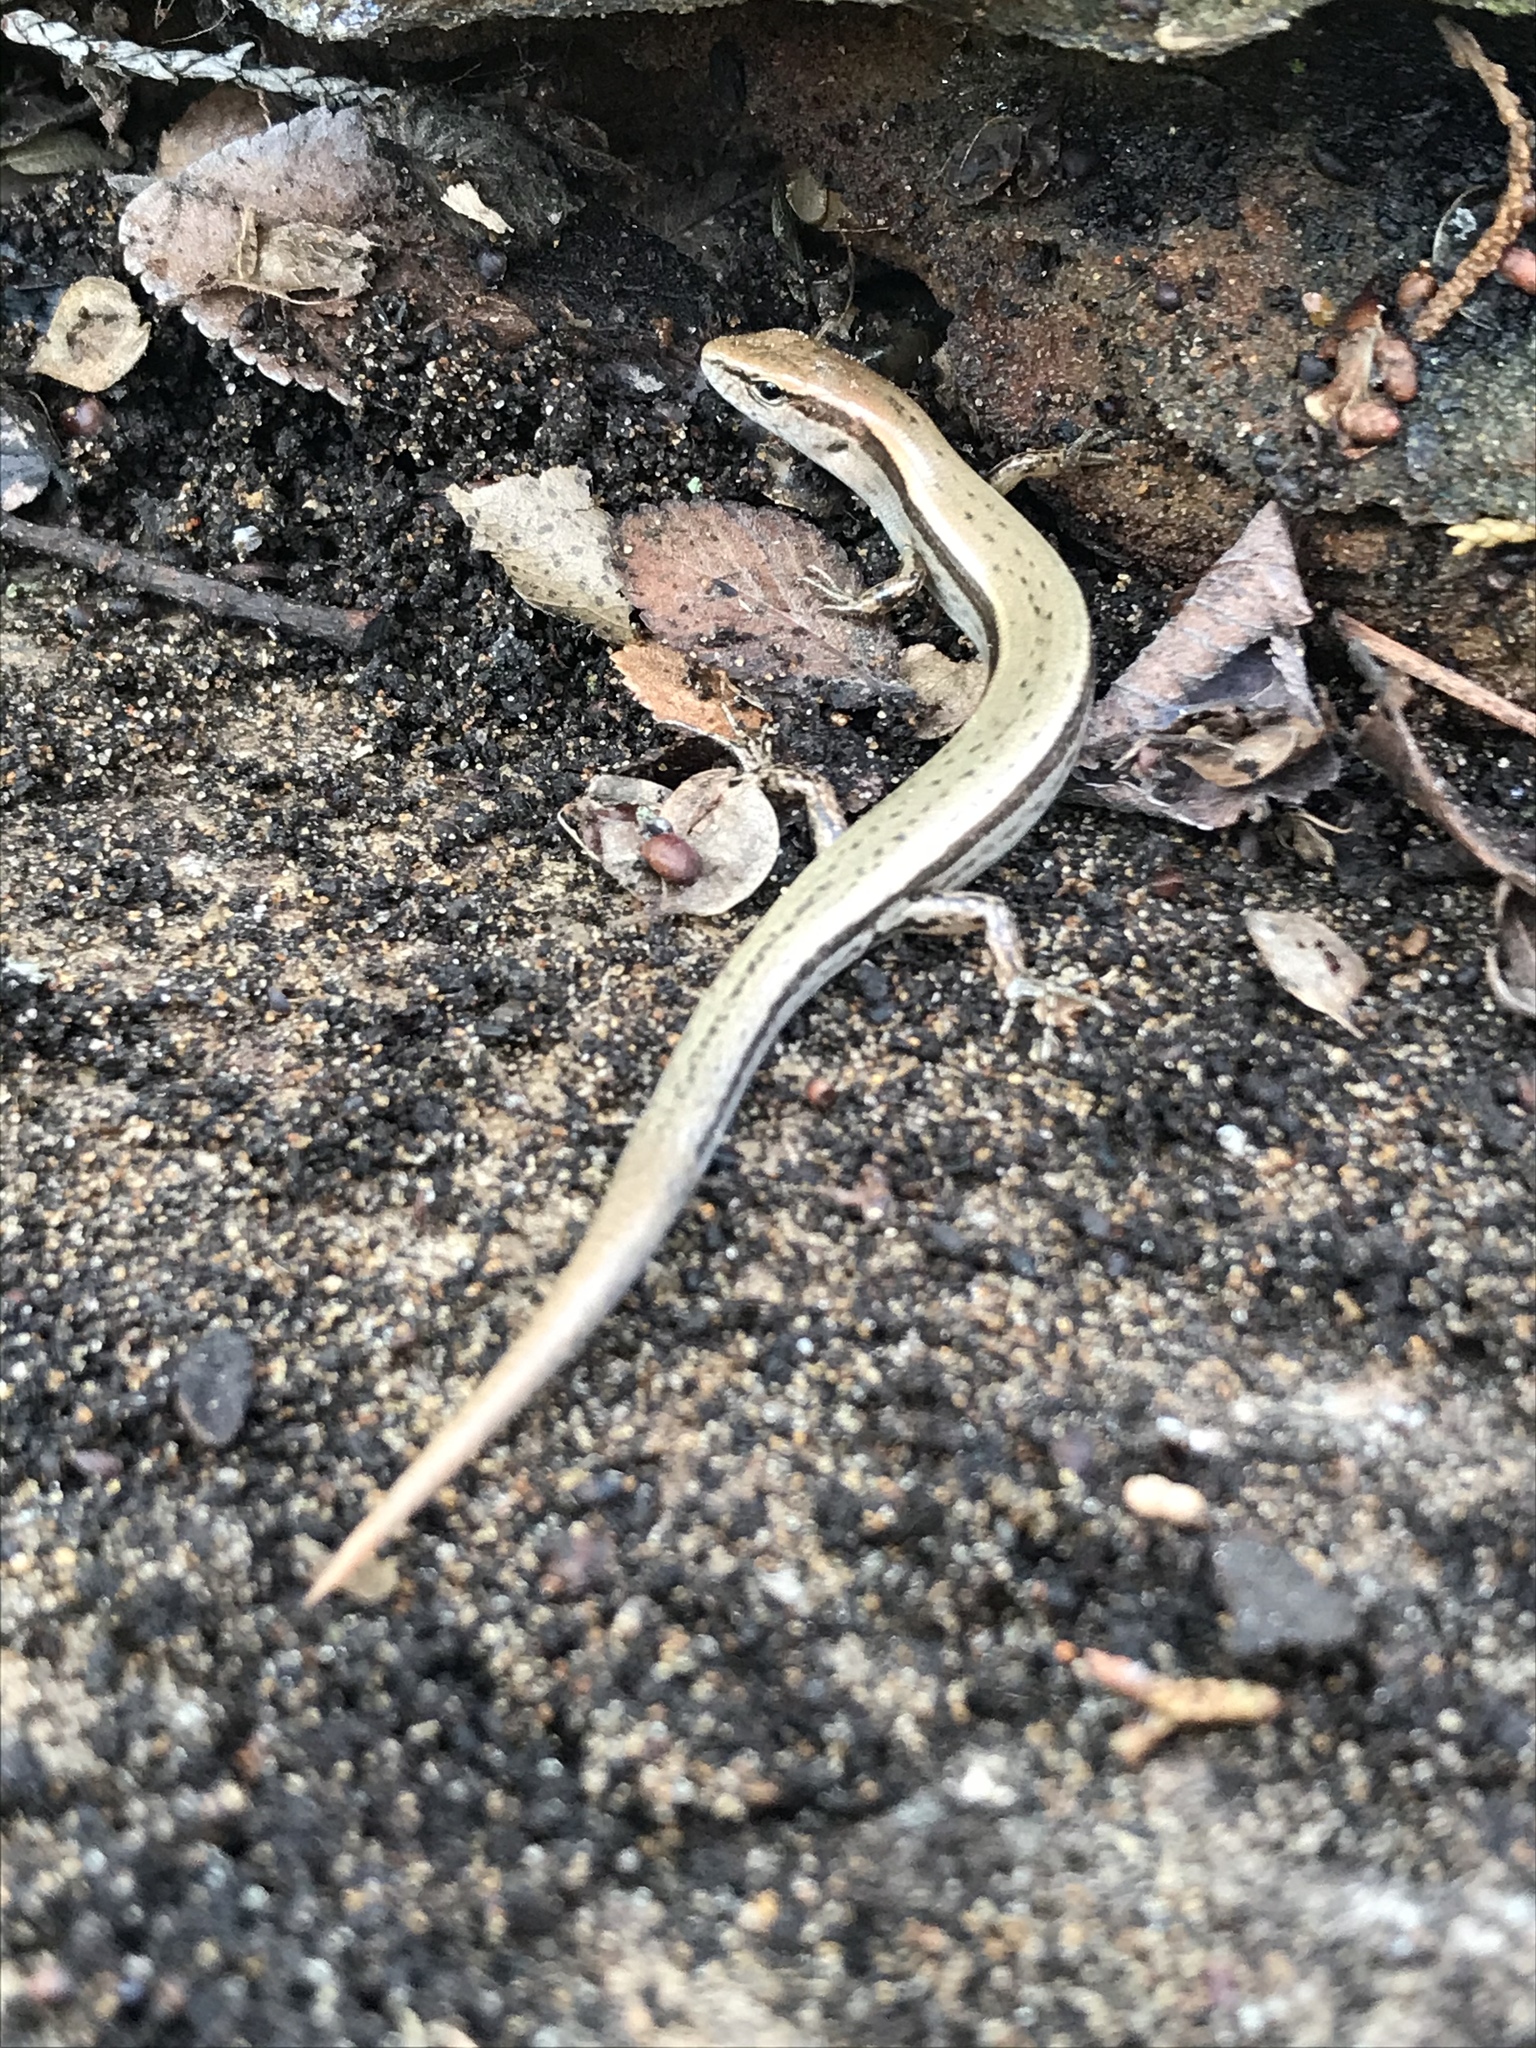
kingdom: Animalia
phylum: Chordata
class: Squamata
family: Scincidae
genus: Scincella
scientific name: Scincella lateralis
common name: Ground skink
